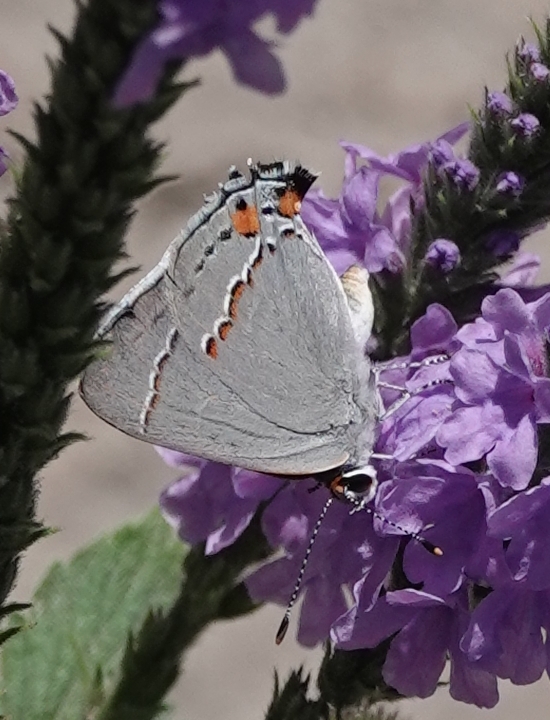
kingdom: Animalia
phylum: Arthropoda
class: Insecta
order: Lepidoptera
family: Lycaenidae
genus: Strymon
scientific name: Strymon melinus
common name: Gray hairstreak
